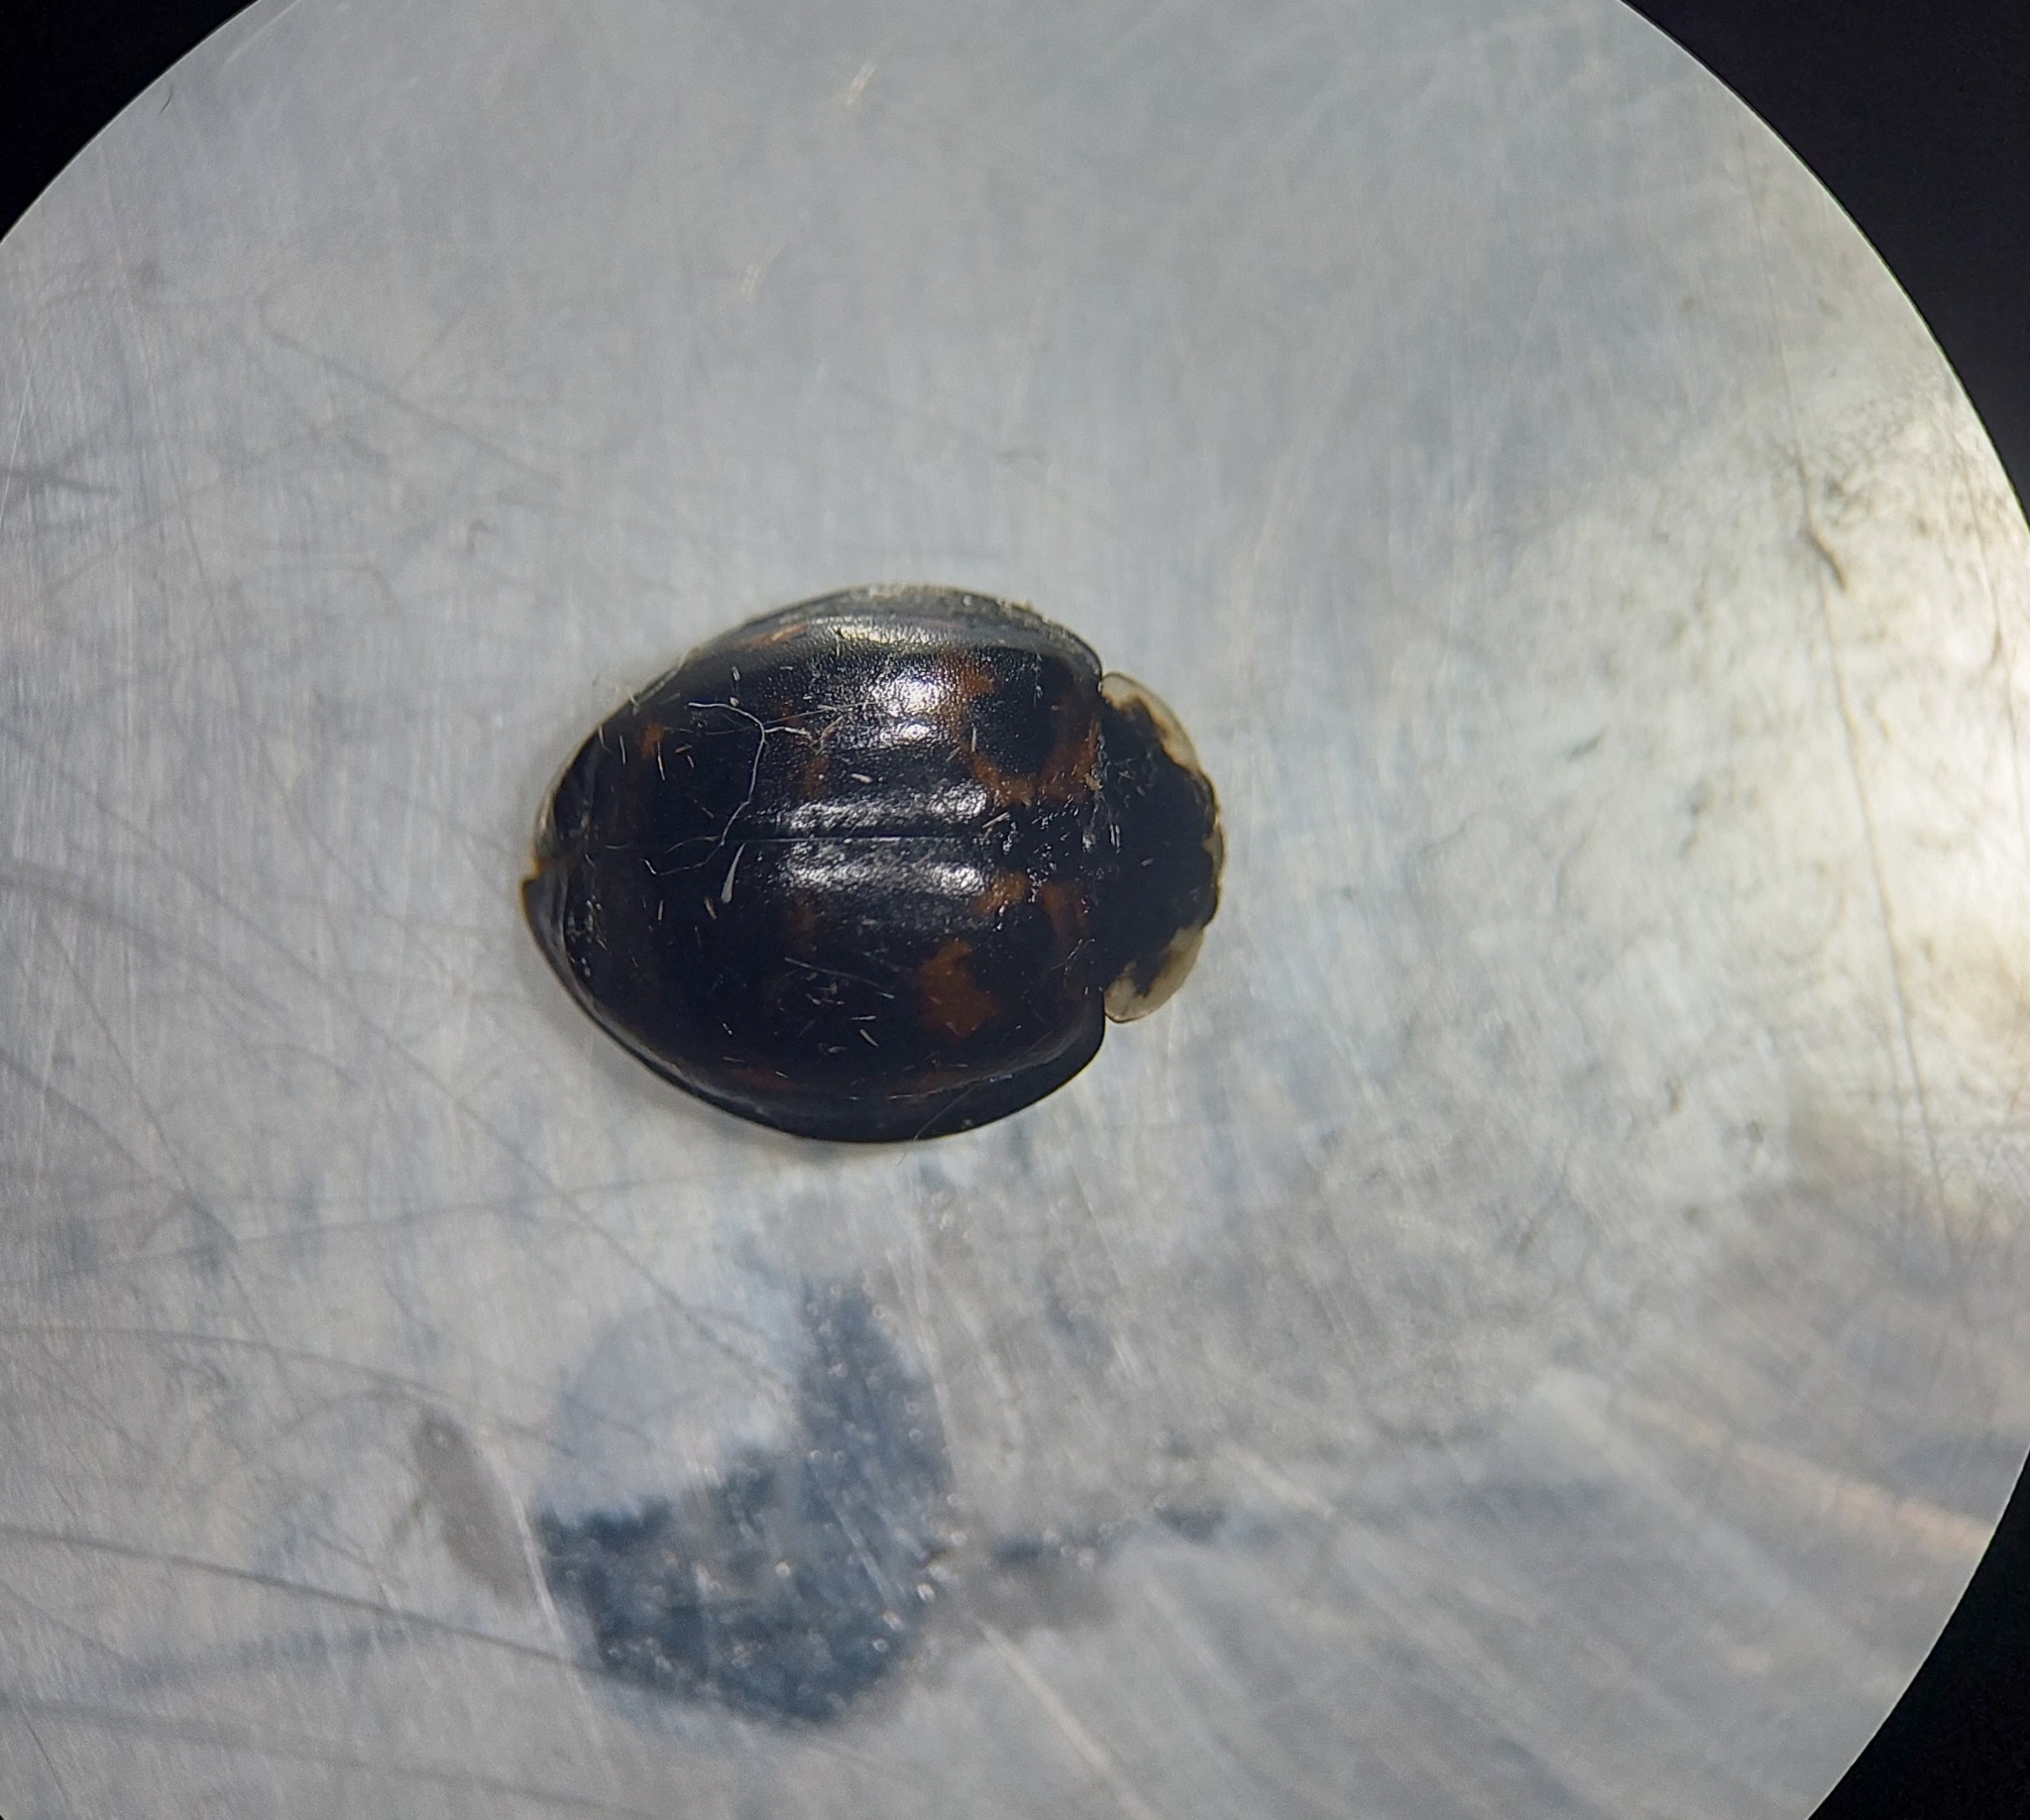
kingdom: Animalia
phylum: Arthropoda
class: Insecta
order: Coleoptera
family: Coccinellidae
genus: Harmonia
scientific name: Harmonia axyridis
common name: Harlequin ladybird
